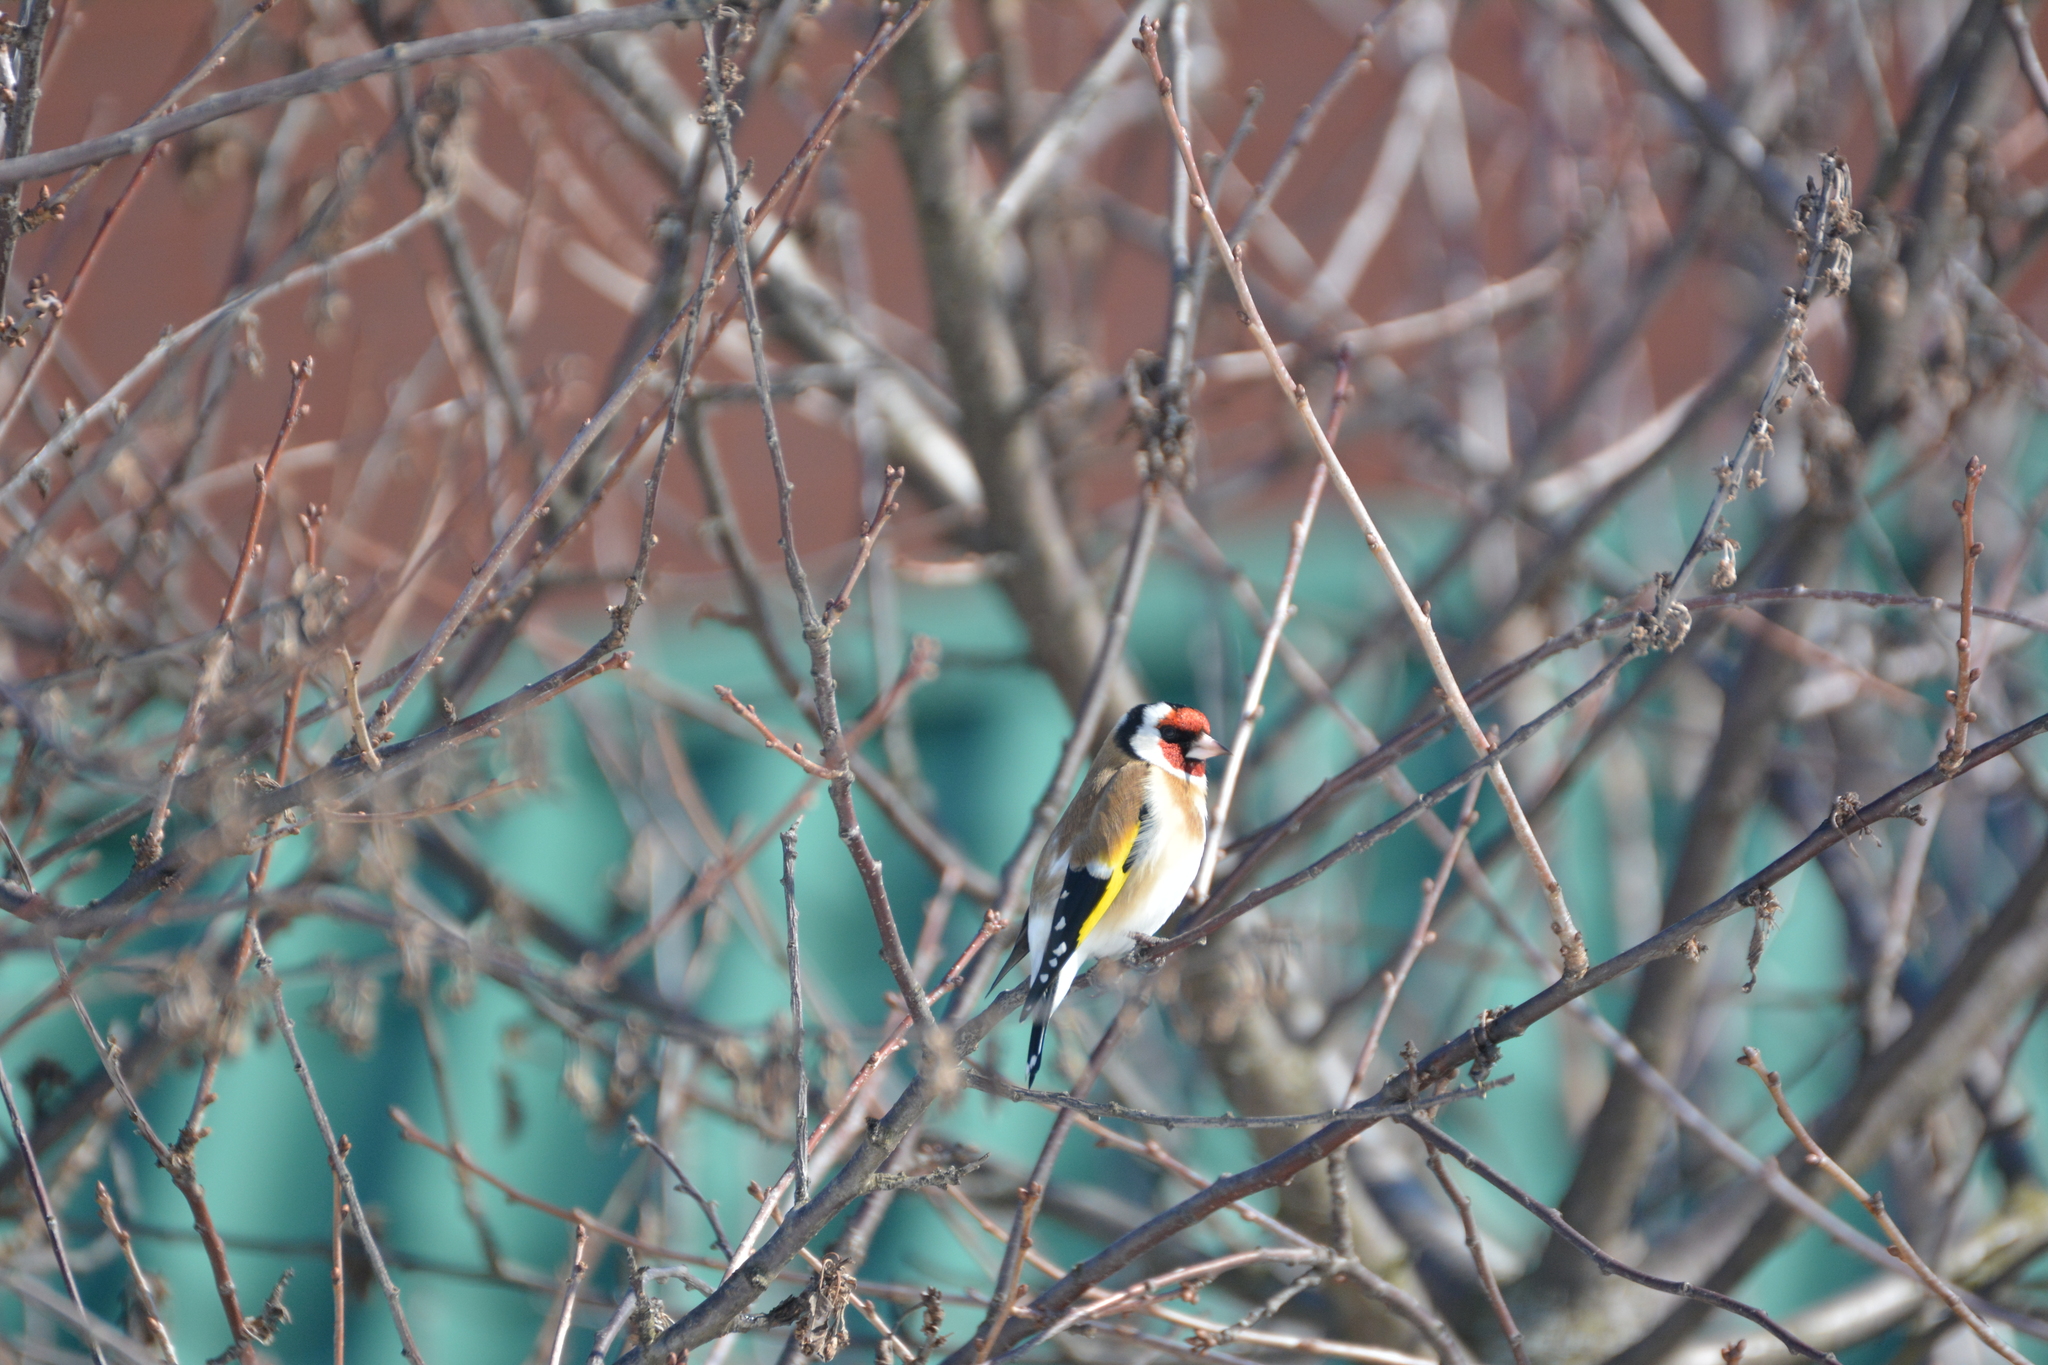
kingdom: Animalia
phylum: Chordata
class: Aves
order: Passeriformes
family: Fringillidae
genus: Carduelis
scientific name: Carduelis carduelis
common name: European goldfinch
